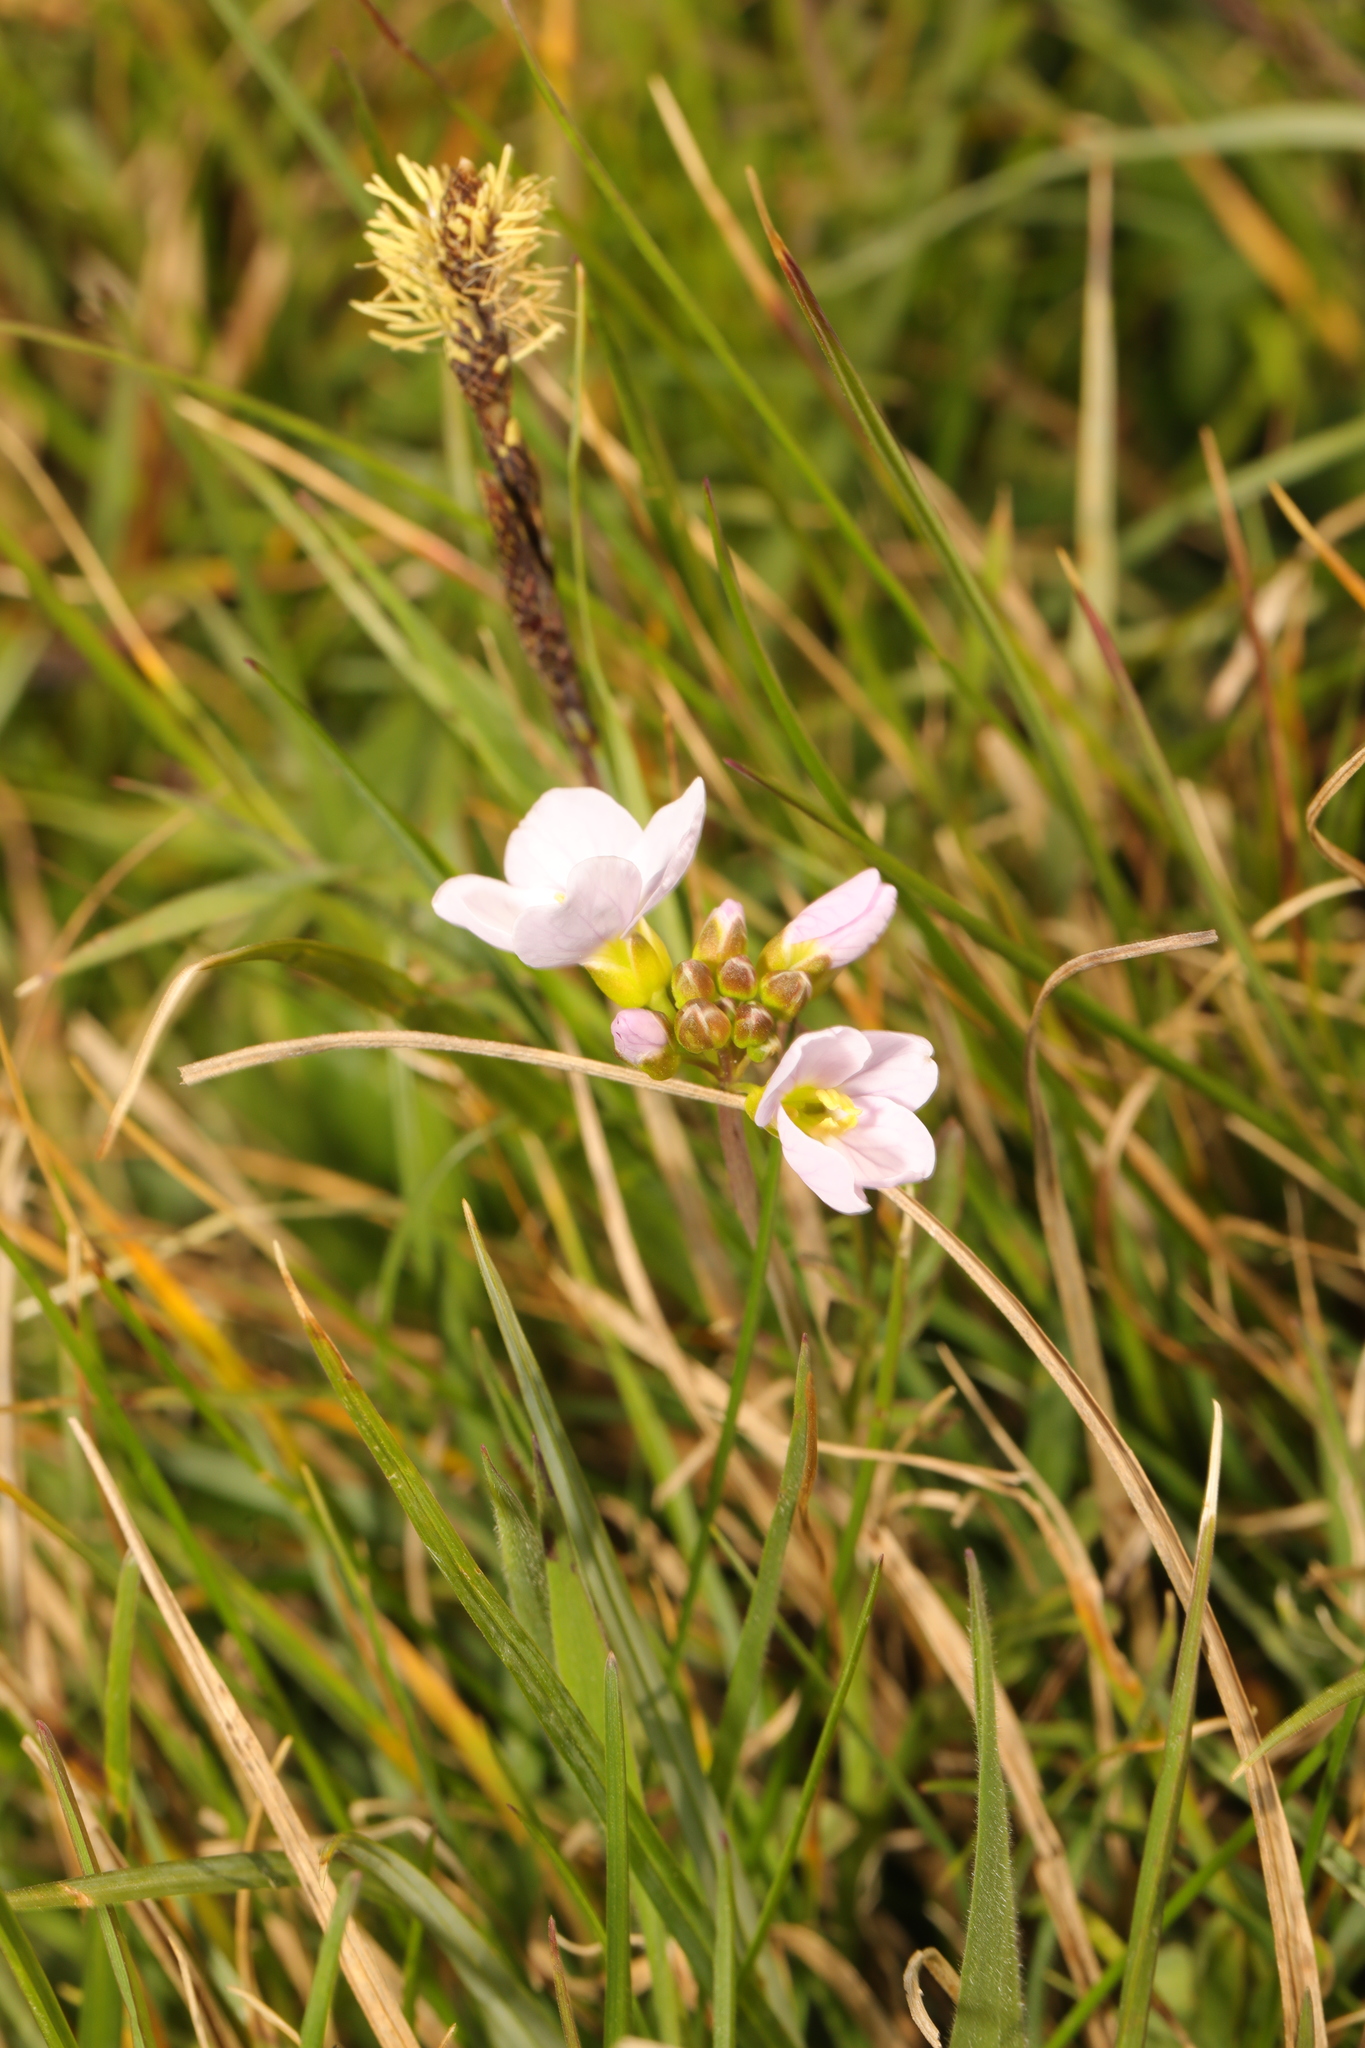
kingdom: Plantae
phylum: Tracheophyta
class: Magnoliopsida
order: Brassicales
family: Brassicaceae
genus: Cardamine
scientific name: Cardamine pratensis
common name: Cuckoo flower
